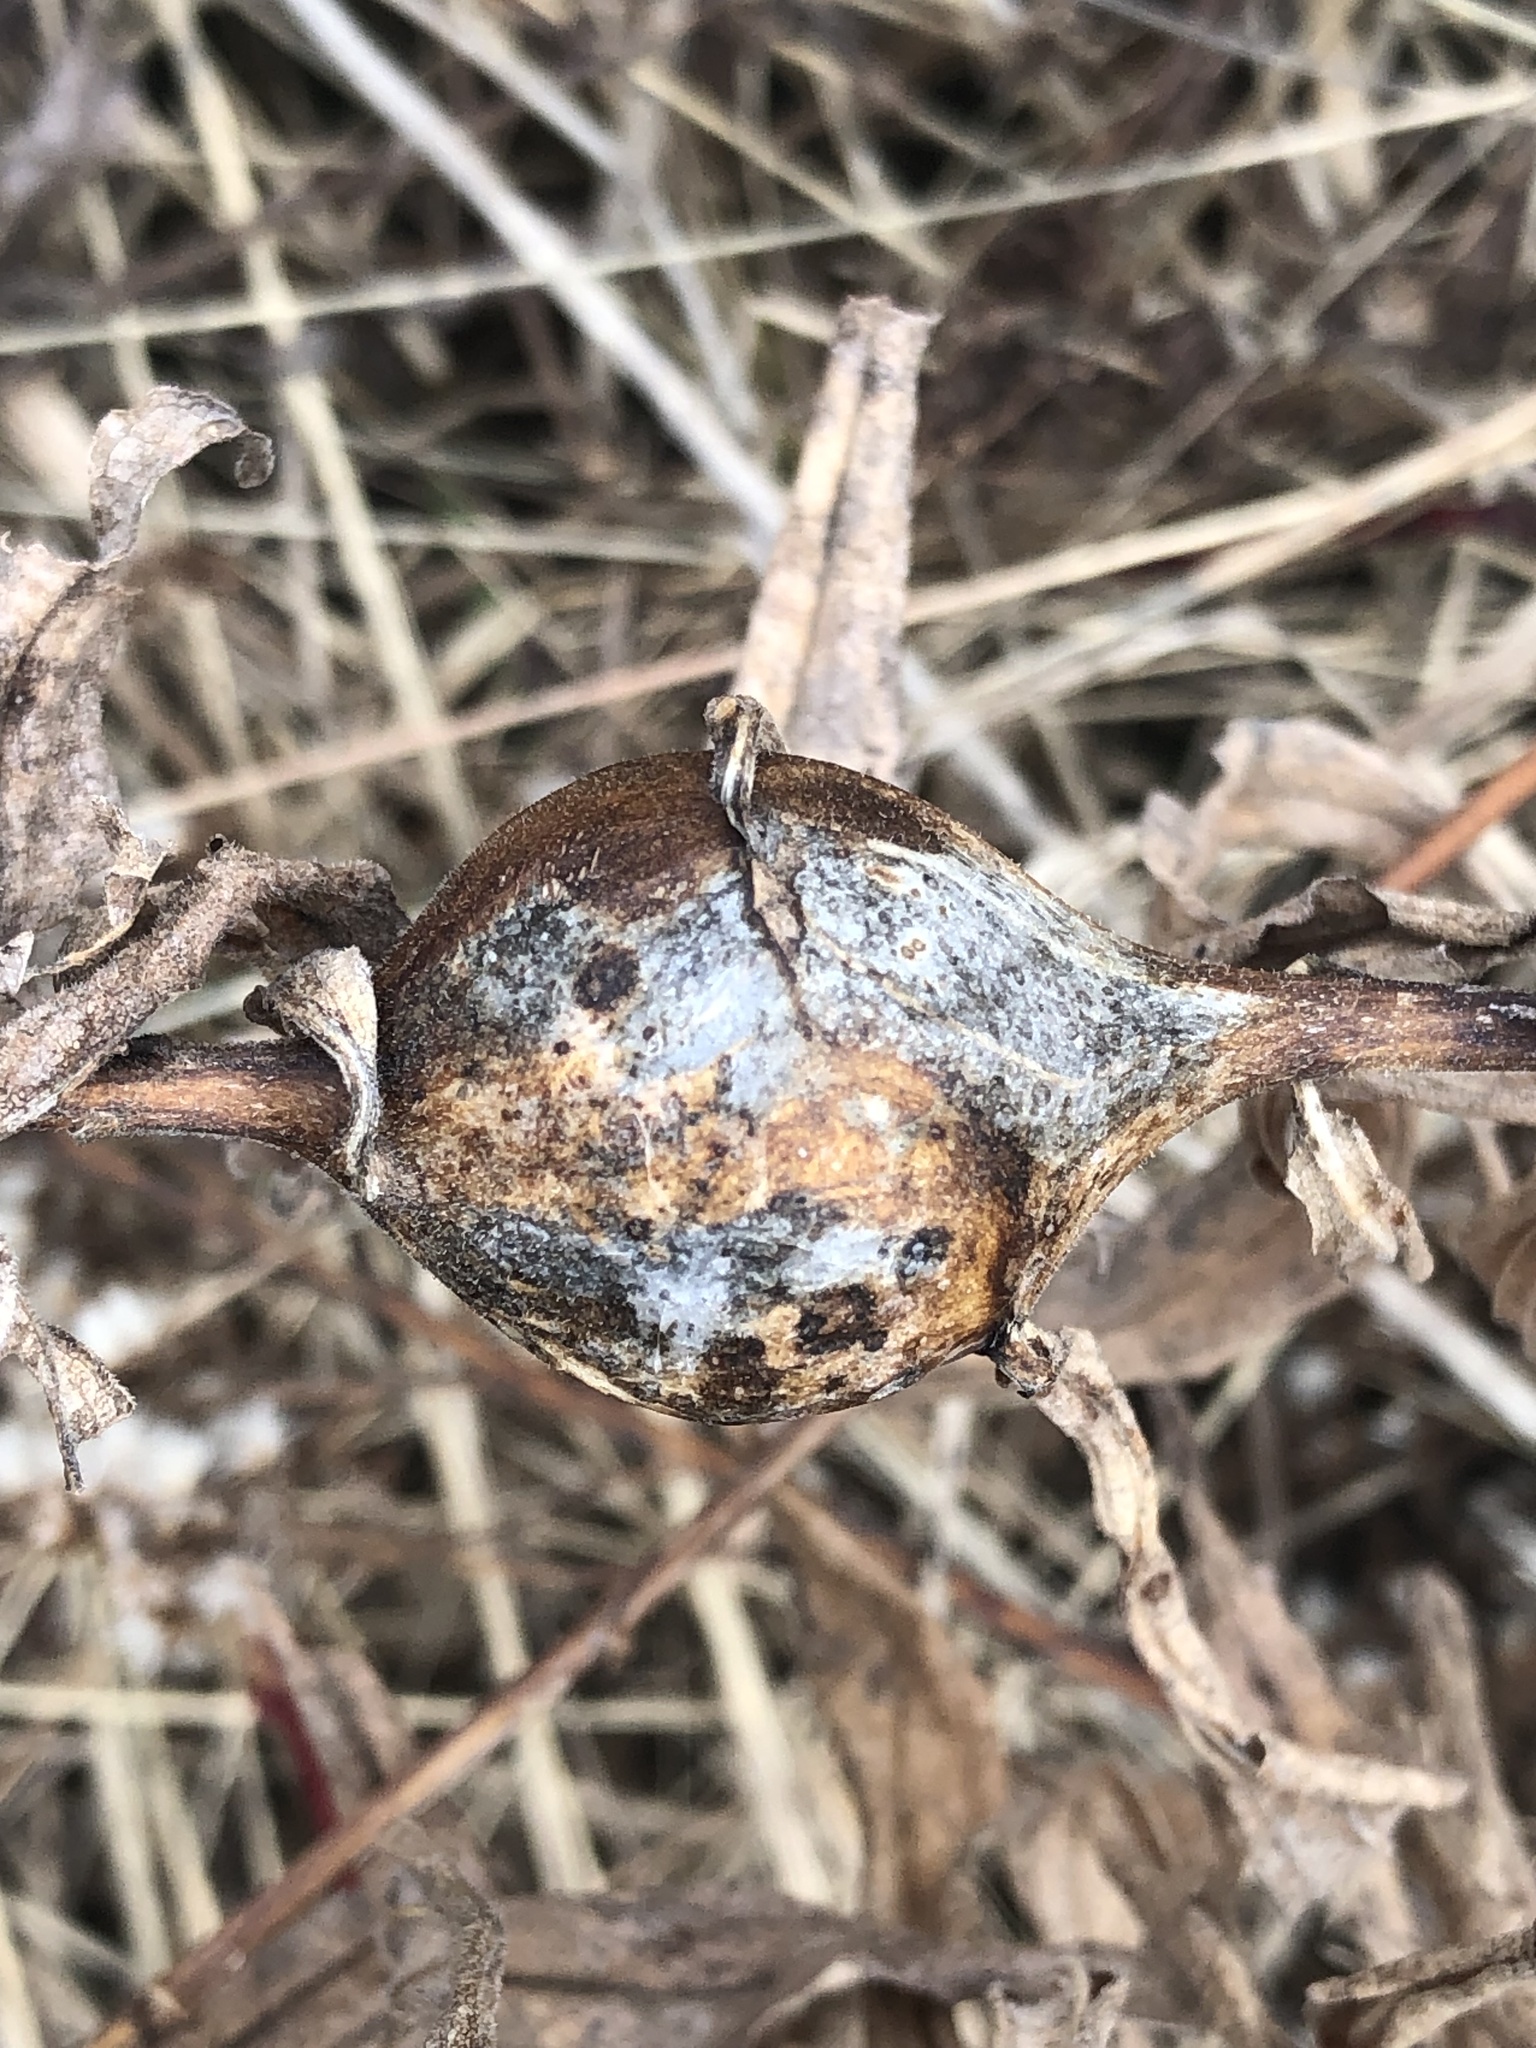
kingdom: Animalia
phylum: Arthropoda
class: Insecta
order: Diptera
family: Tephritidae
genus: Eurosta
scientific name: Eurosta solidaginis
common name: Goldenrod gall fly
